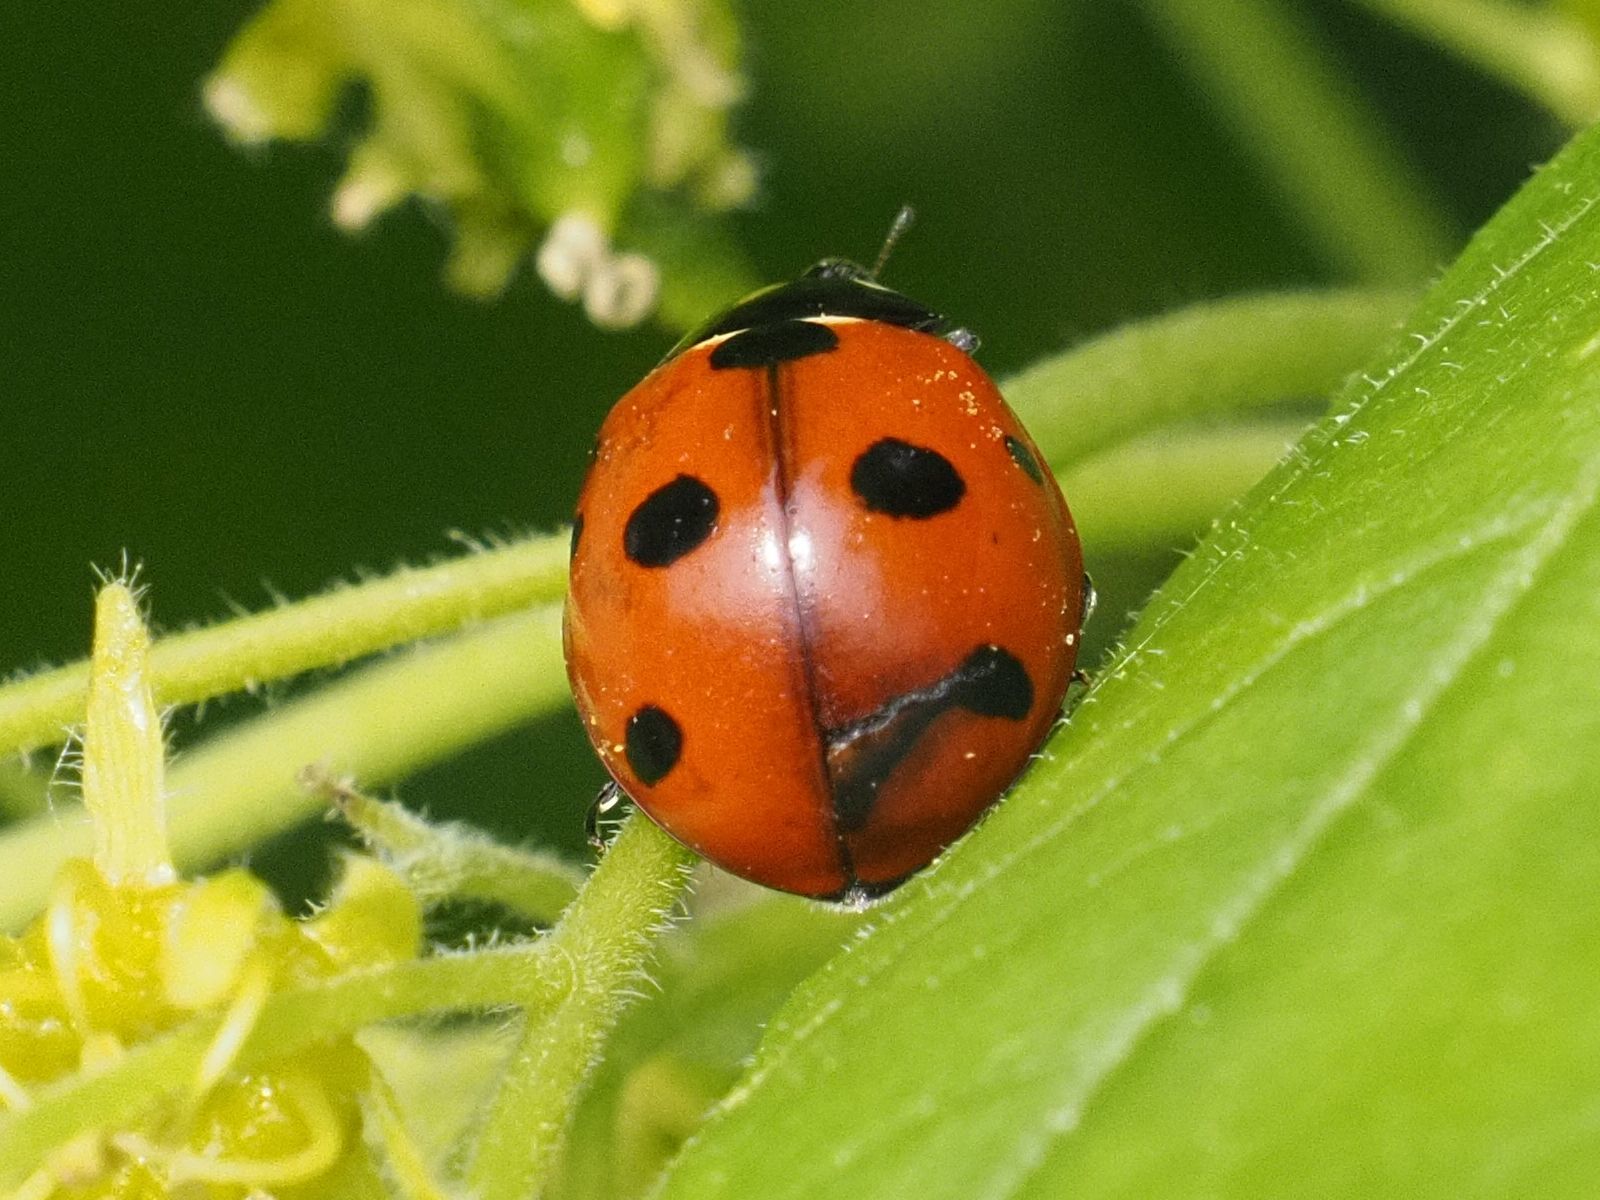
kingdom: Animalia
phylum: Arthropoda
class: Insecta
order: Coleoptera
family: Coccinellidae
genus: Coccinella
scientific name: Coccinella septempunctata
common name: Sevenspotted lady beetle
